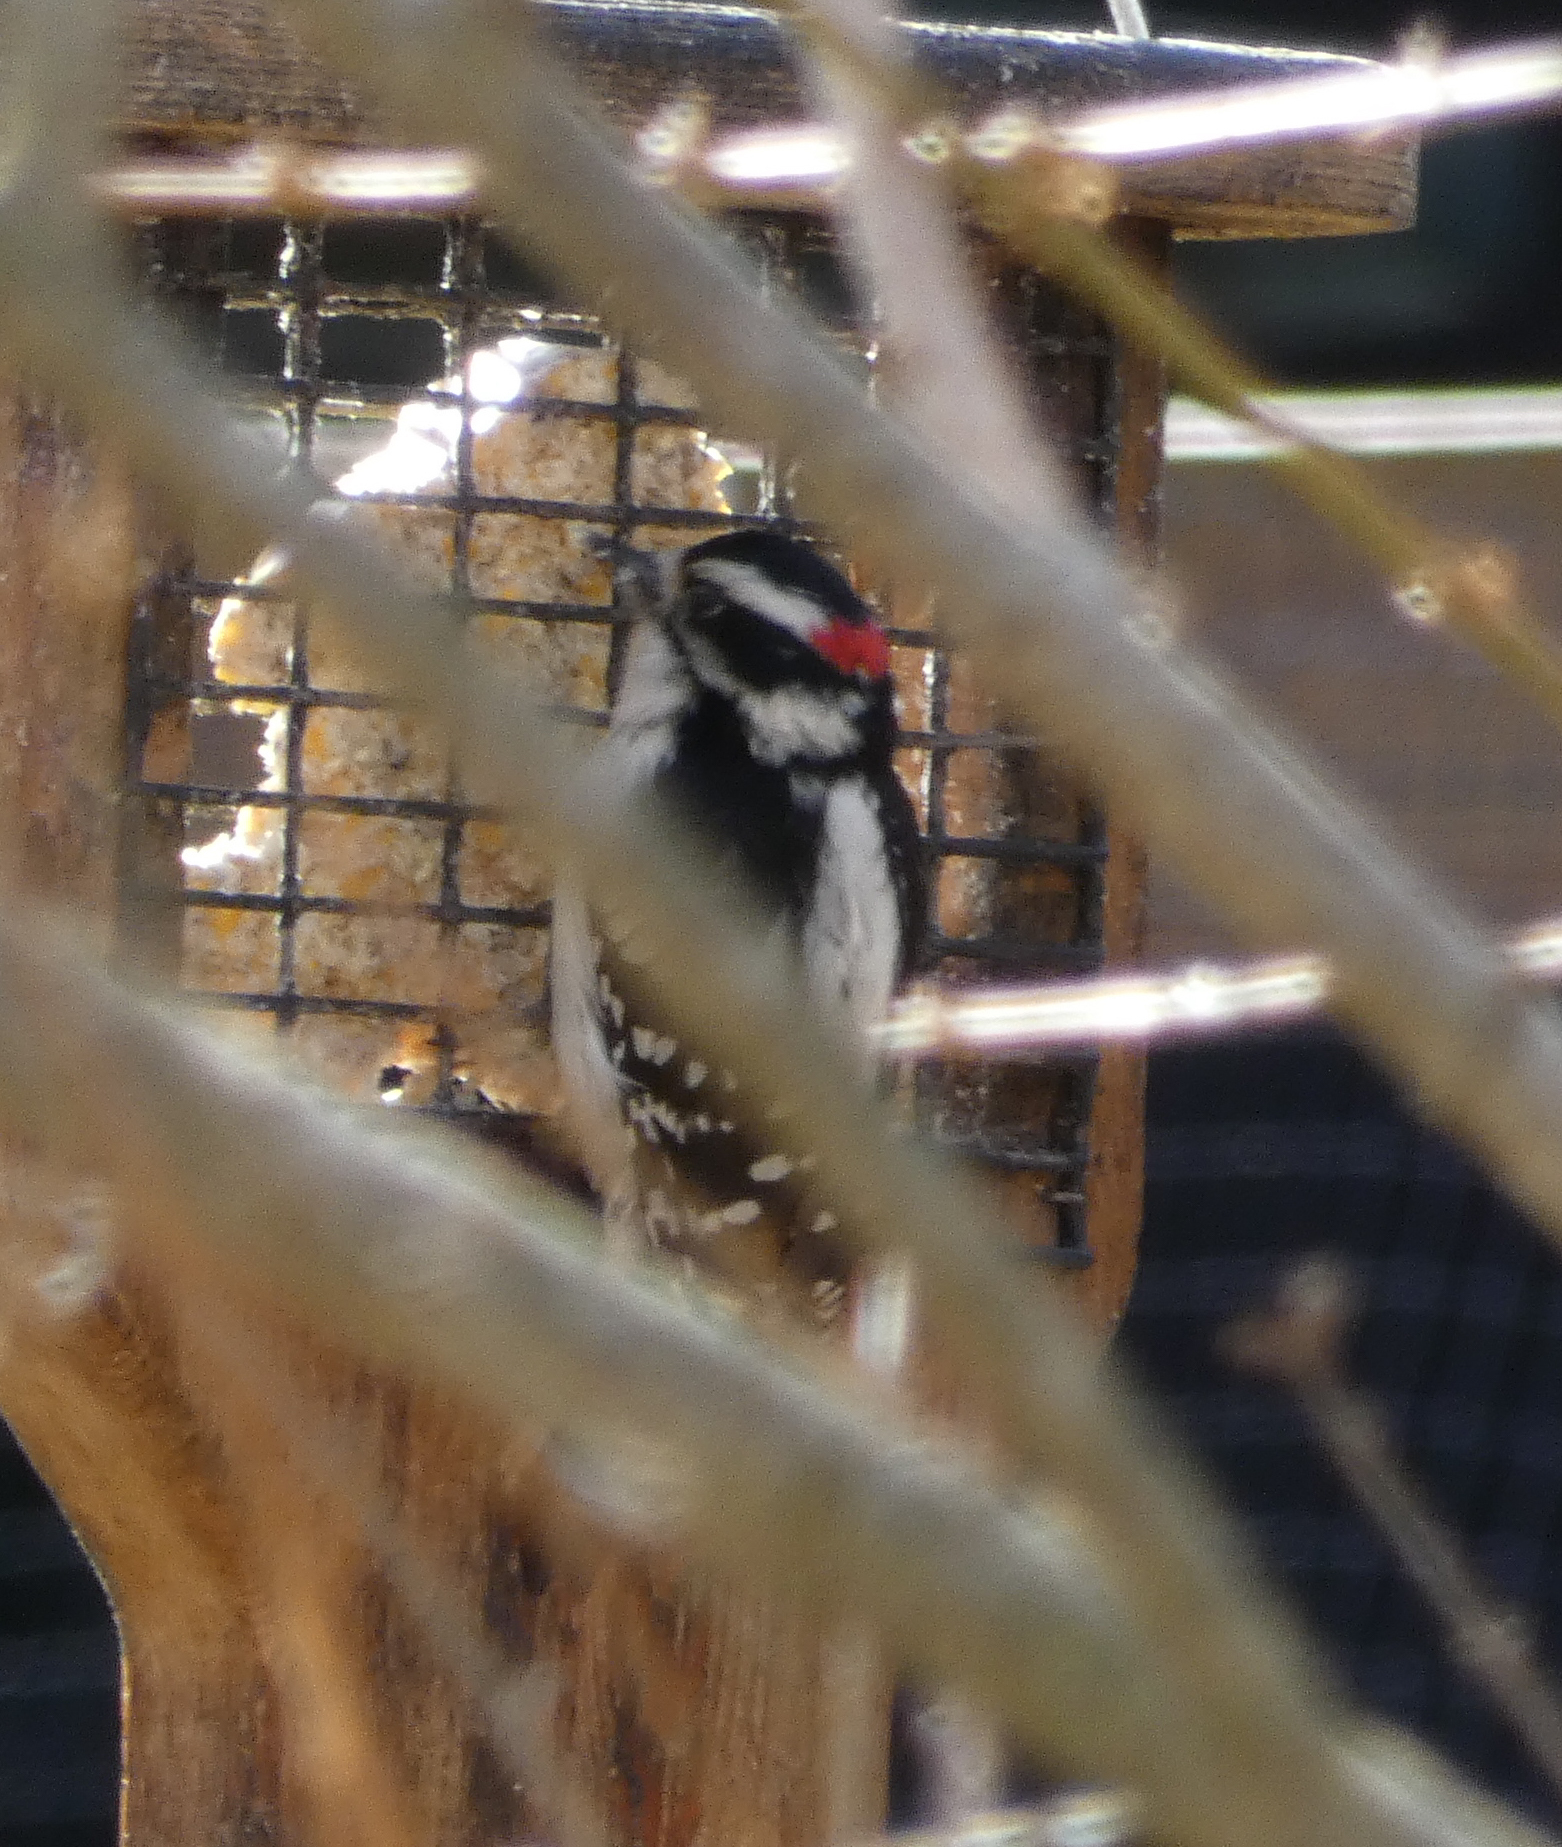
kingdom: Animalia
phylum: Chordata
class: Aves
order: Piciformes
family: Picidae
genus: Dryobates
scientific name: Dryobates pubescens
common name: Downy woodpecker
